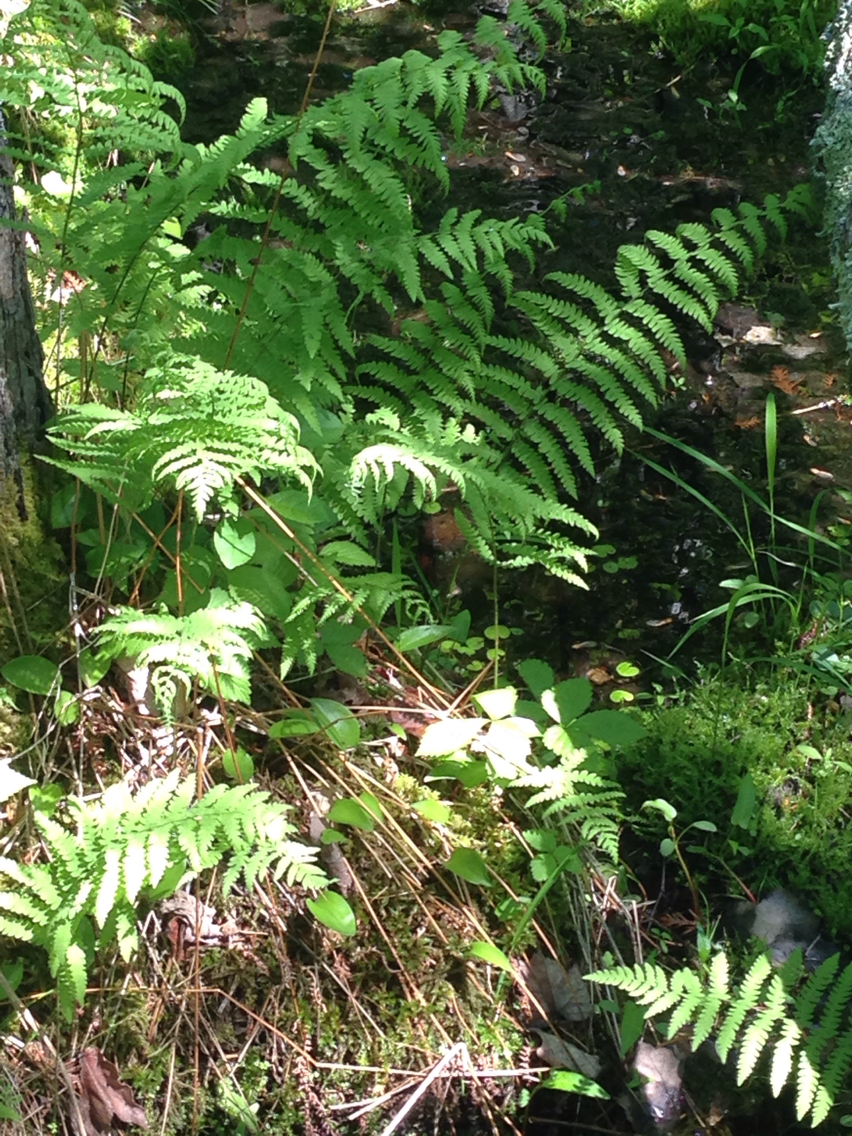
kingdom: Plantae
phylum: Tracheophyta
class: Liliopsida
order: Alismatales
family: Hydrocharitaceae
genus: Hydrocharis
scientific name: Hydrocharis morsus-ranae
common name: Frogbit
